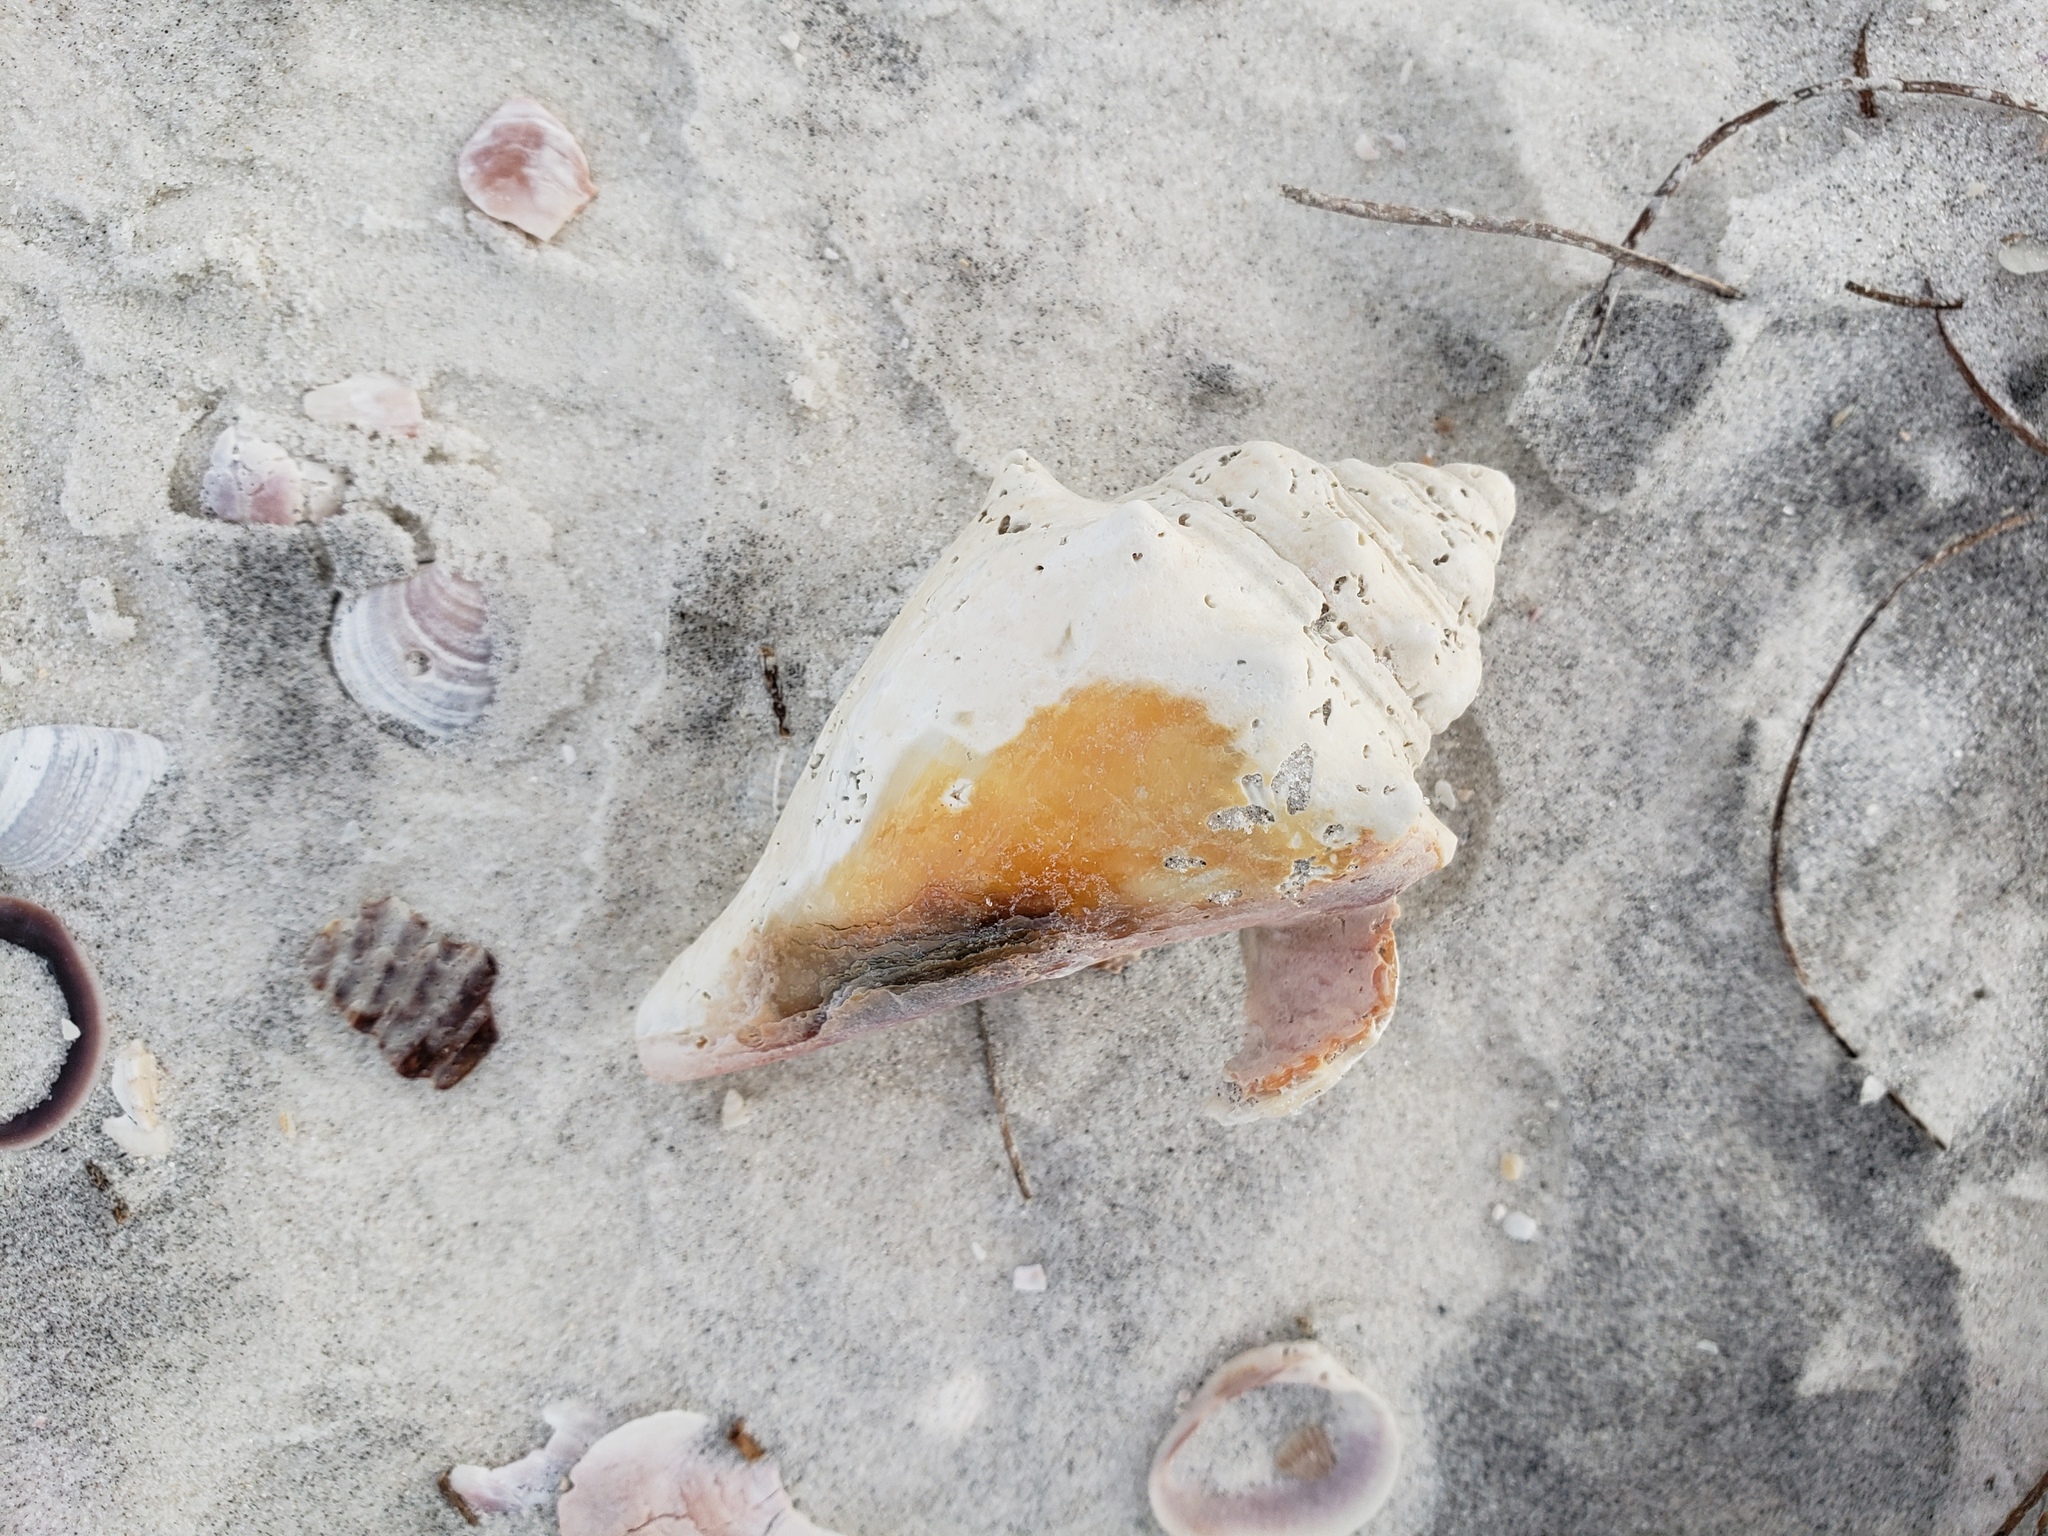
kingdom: Animalia
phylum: Mollusca
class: Gastropoda
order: Littorinimorpha
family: Strombidae
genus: Strombus
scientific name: Strombus alatus
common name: Florida fighting conch
